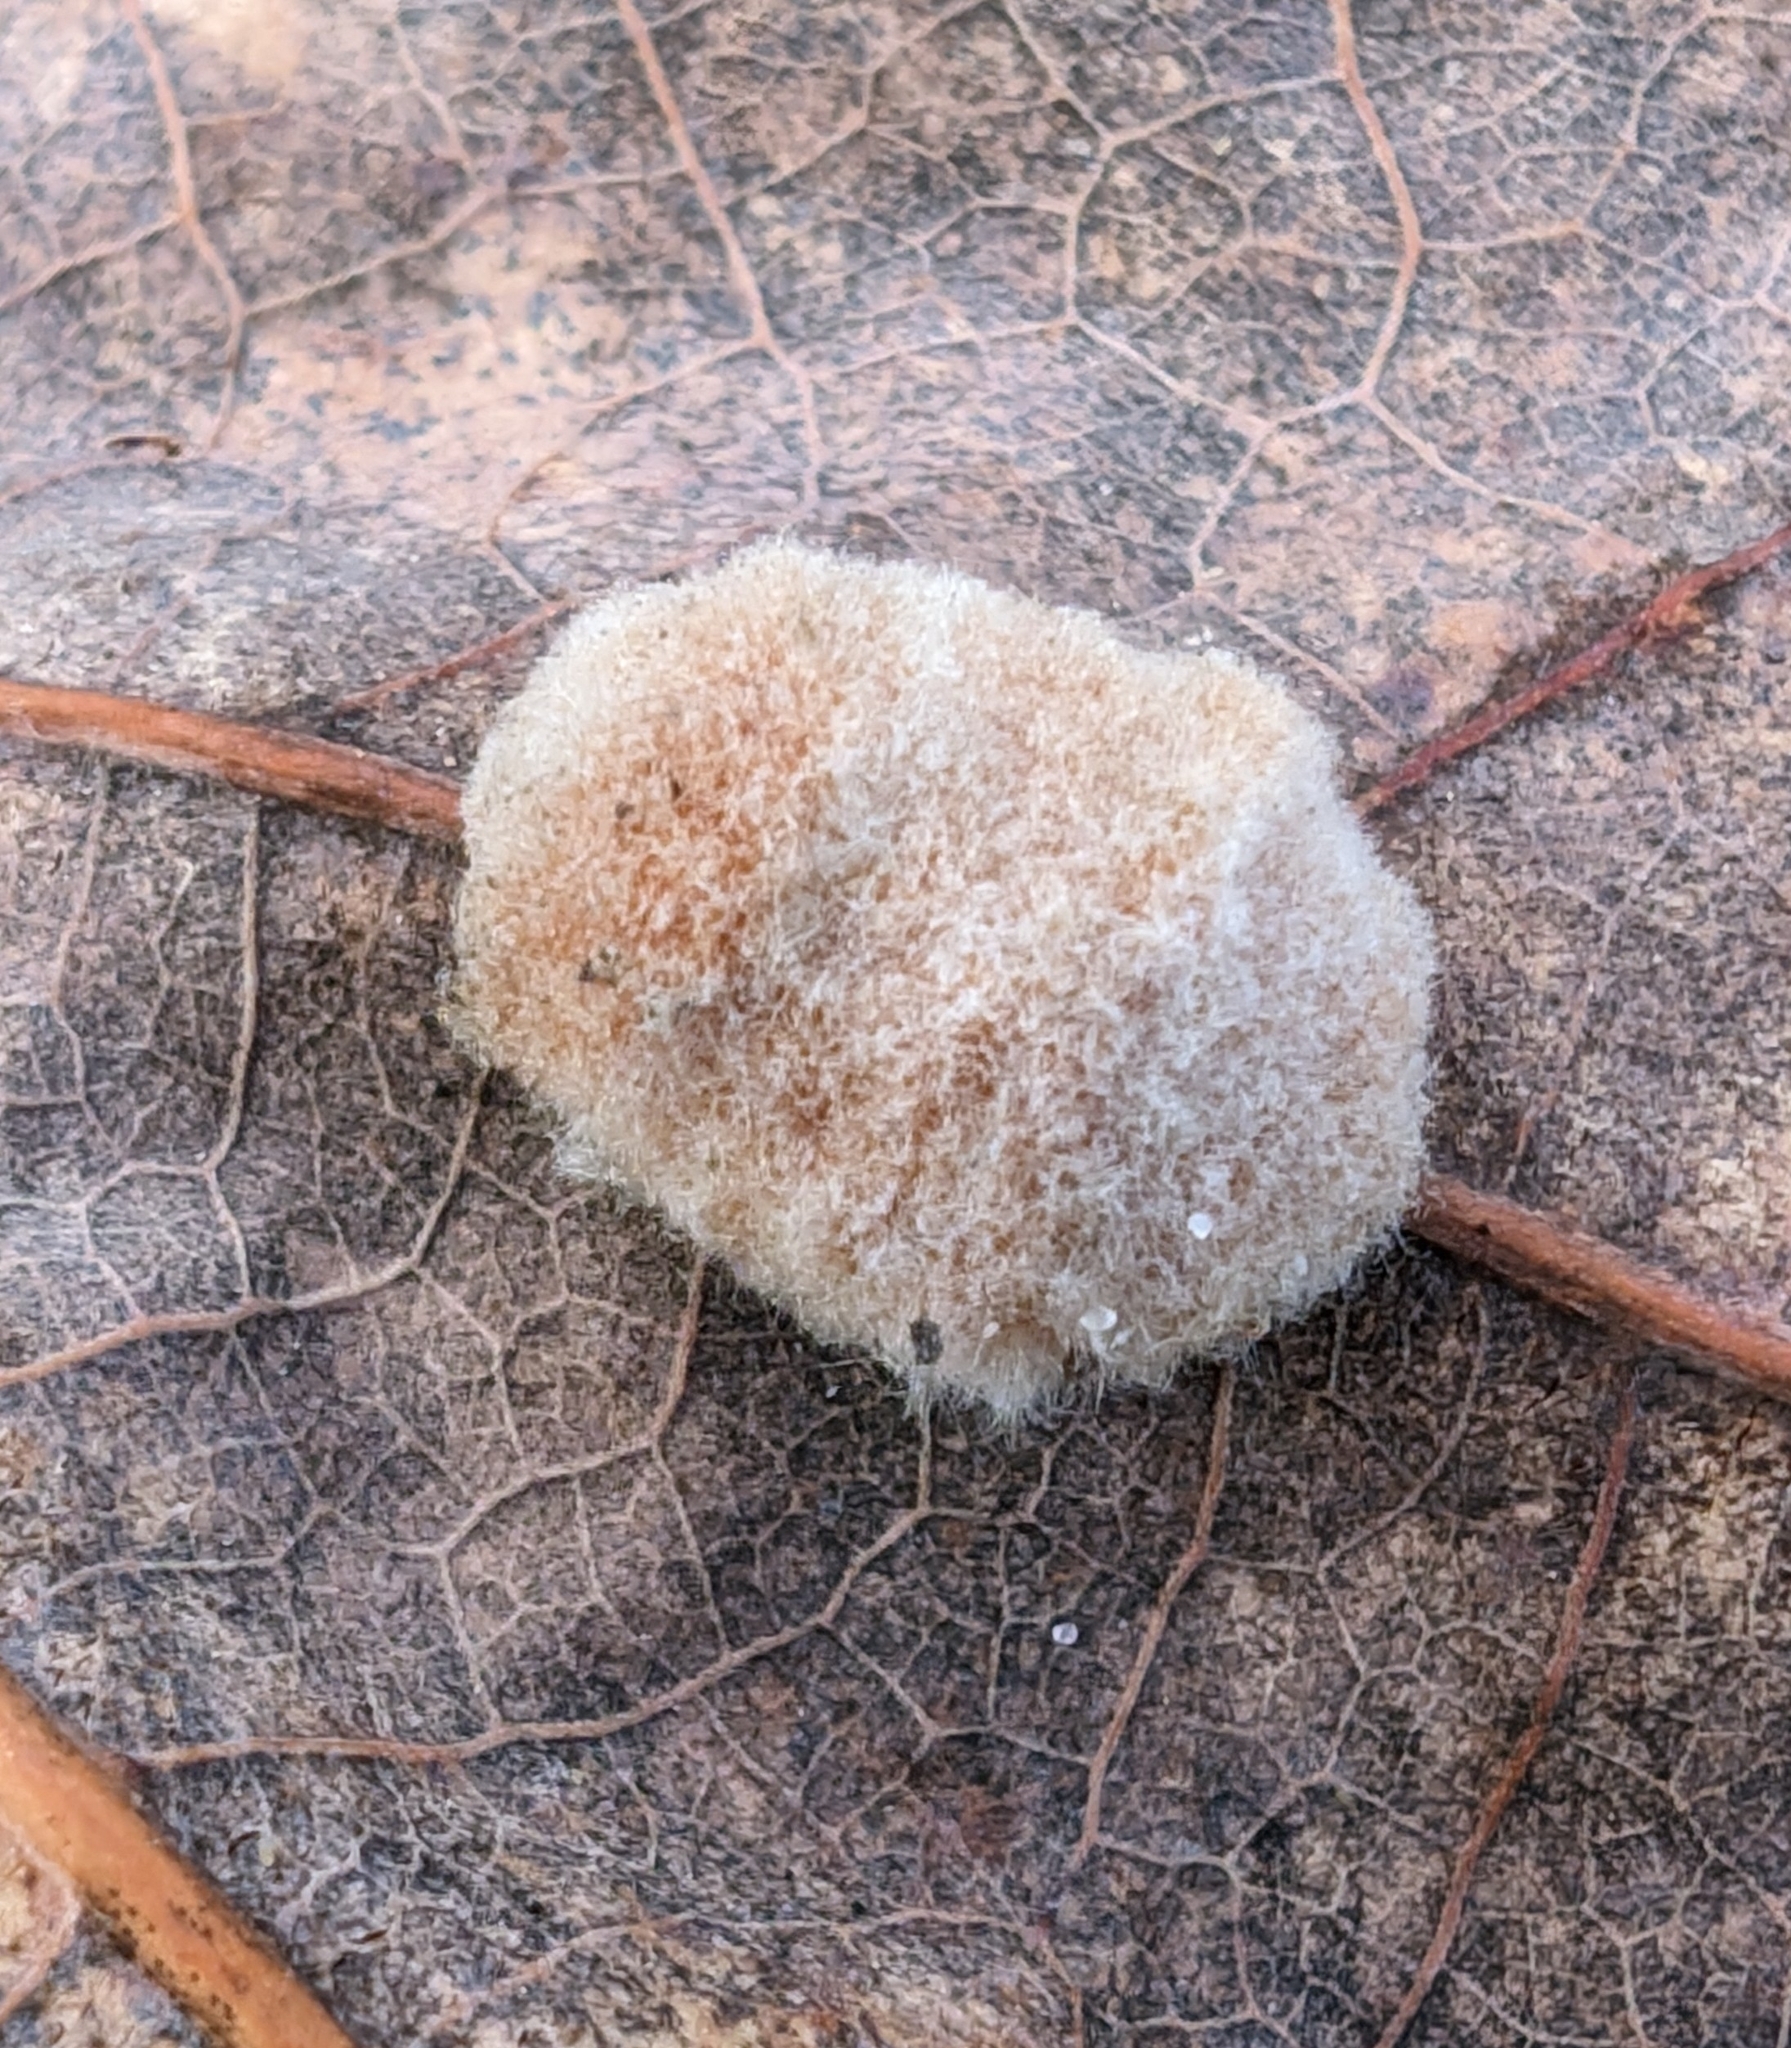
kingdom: Animalia
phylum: Arthropoda
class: Insecta
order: Hymenoptera
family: Cynipidae
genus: Andricus
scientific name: Andricus quercusflocci
